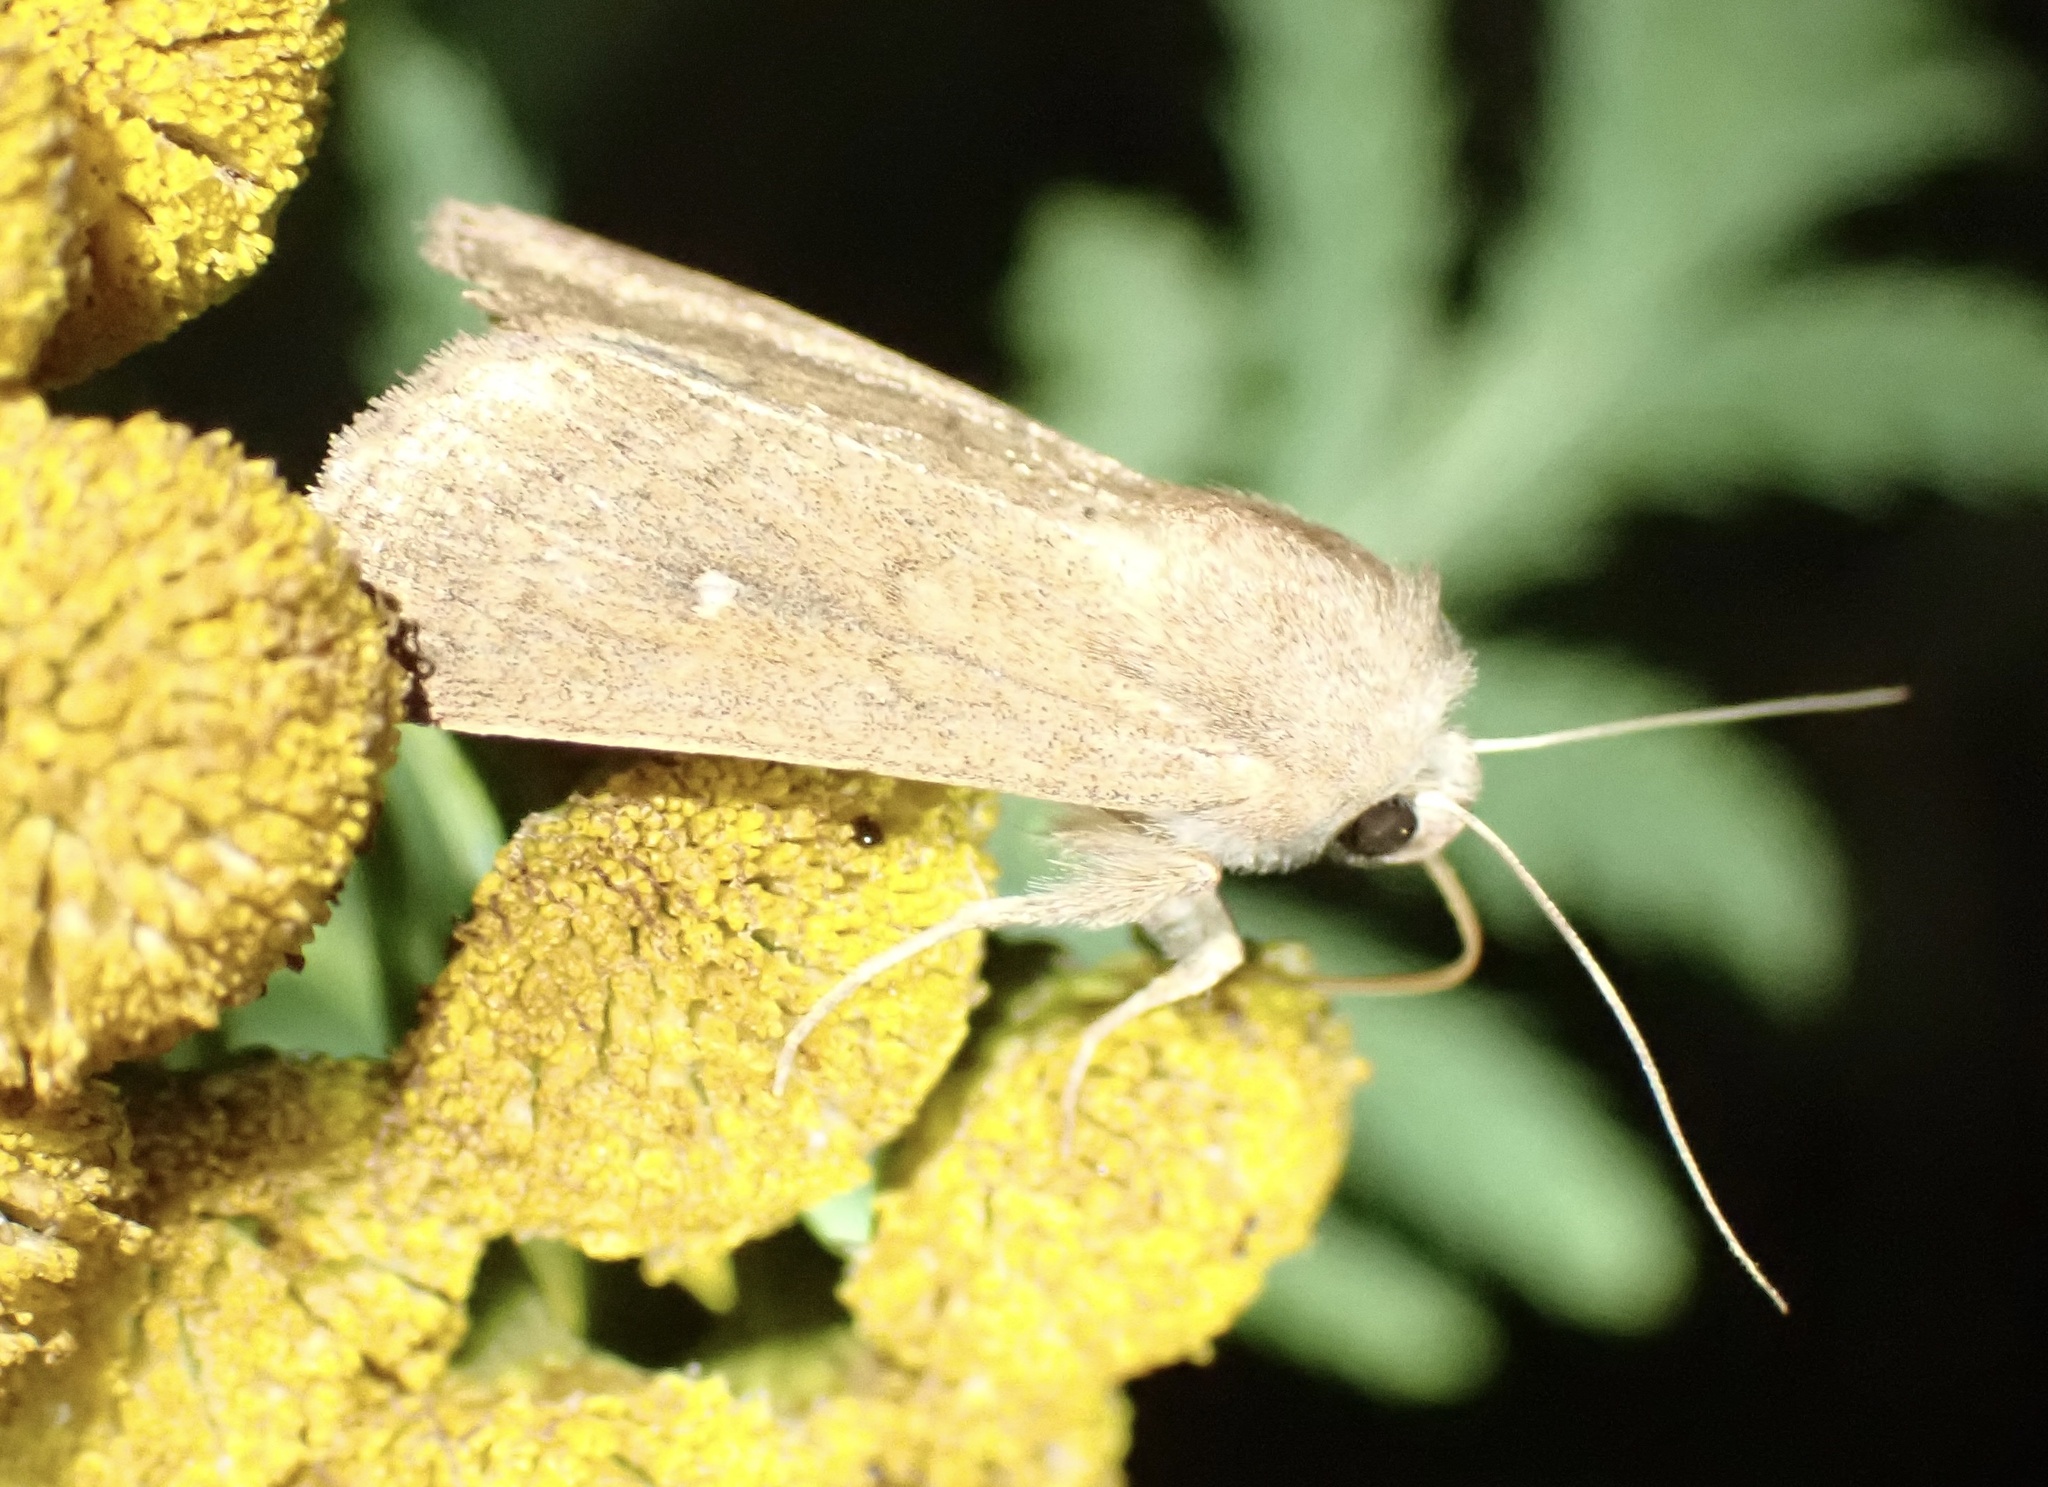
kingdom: Animalia
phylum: Arthropoda
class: Insecta
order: Lepidoptera
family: Noctuidae
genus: Mythimna
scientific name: Mythimna albipuncta
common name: White-point
